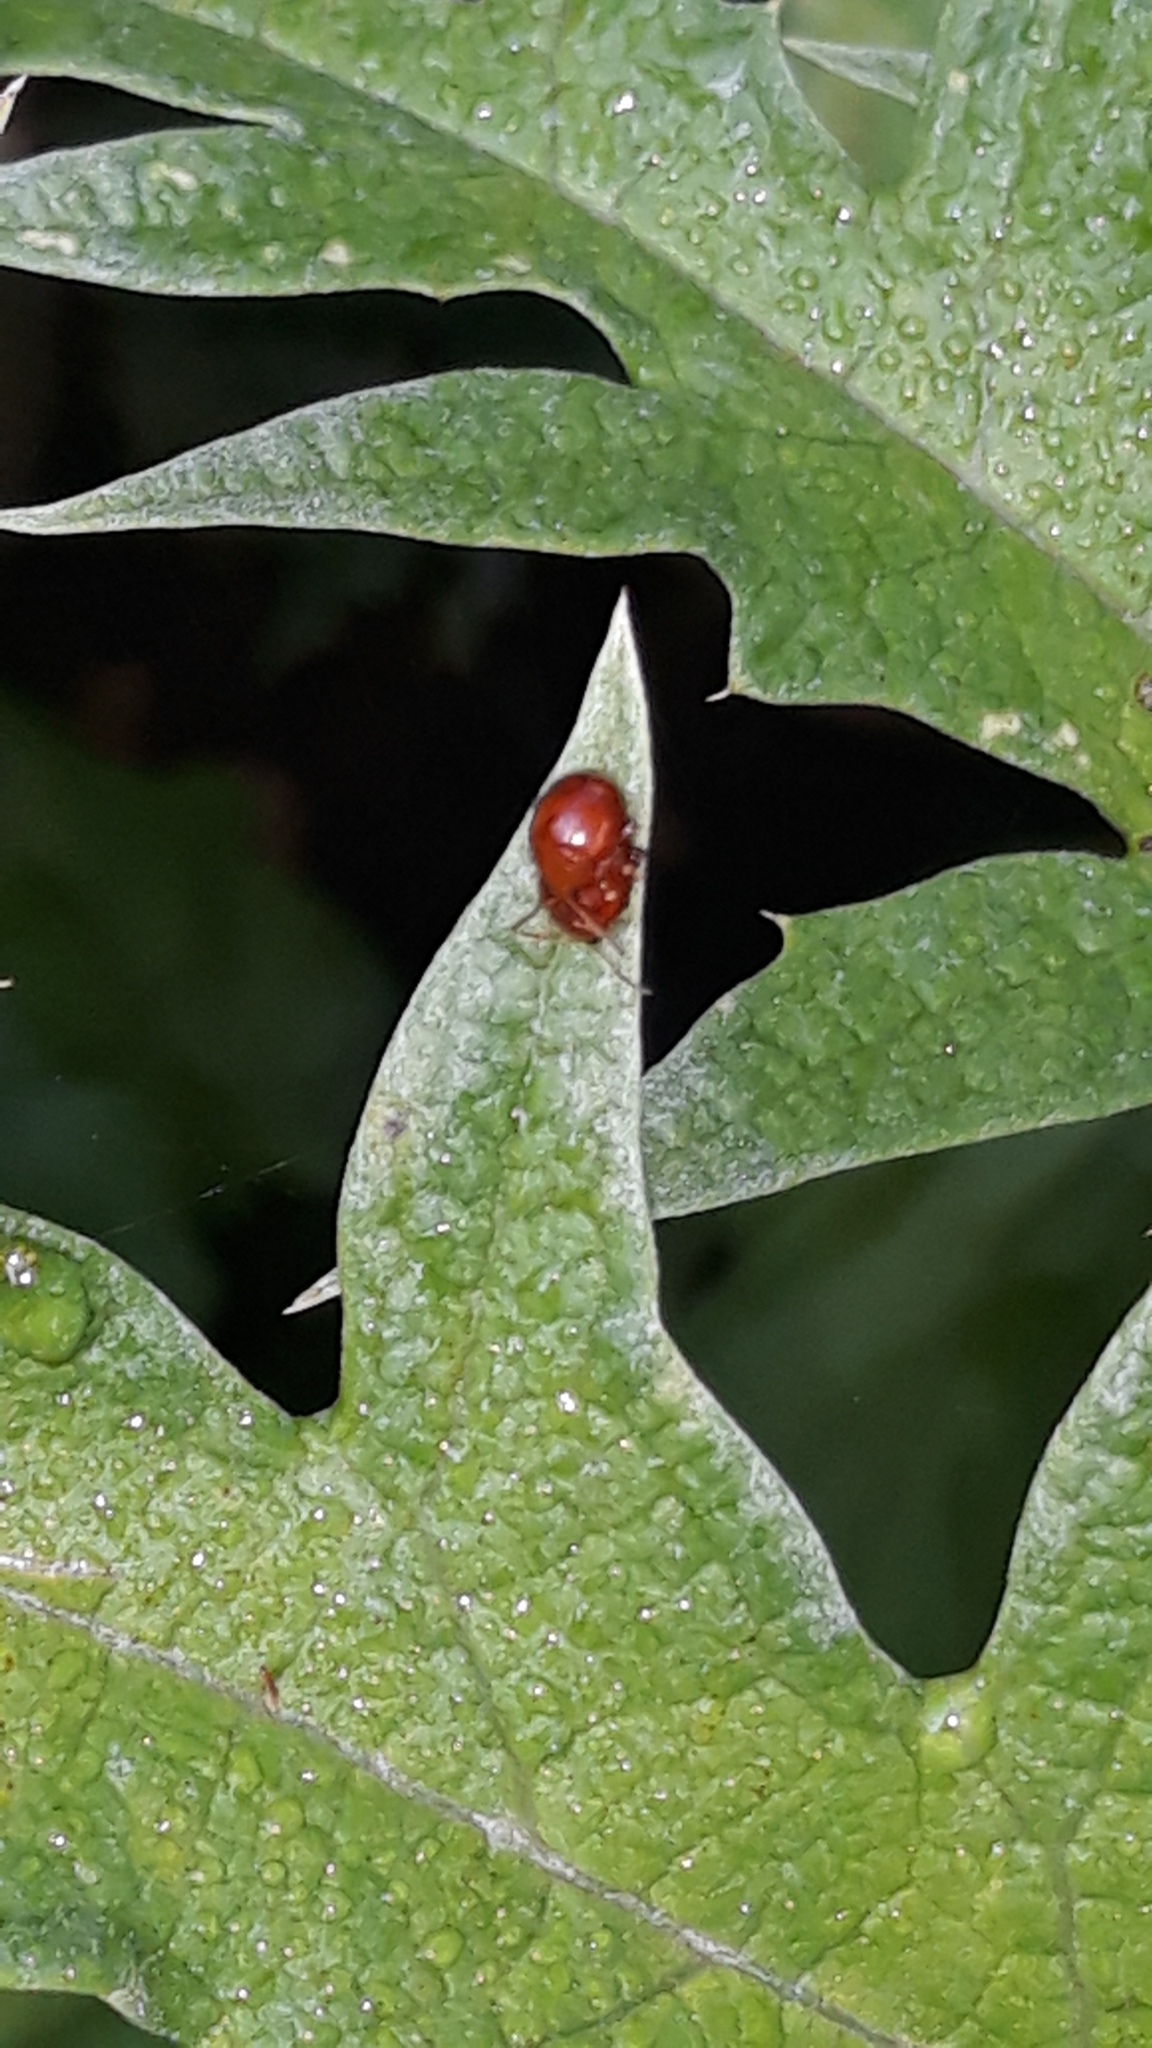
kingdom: Animalia
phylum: Arthropoda
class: Insecta
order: Coleoptera
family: Chrysomelidae
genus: Sphaeroderma
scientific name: Sphaeroderma rubi
